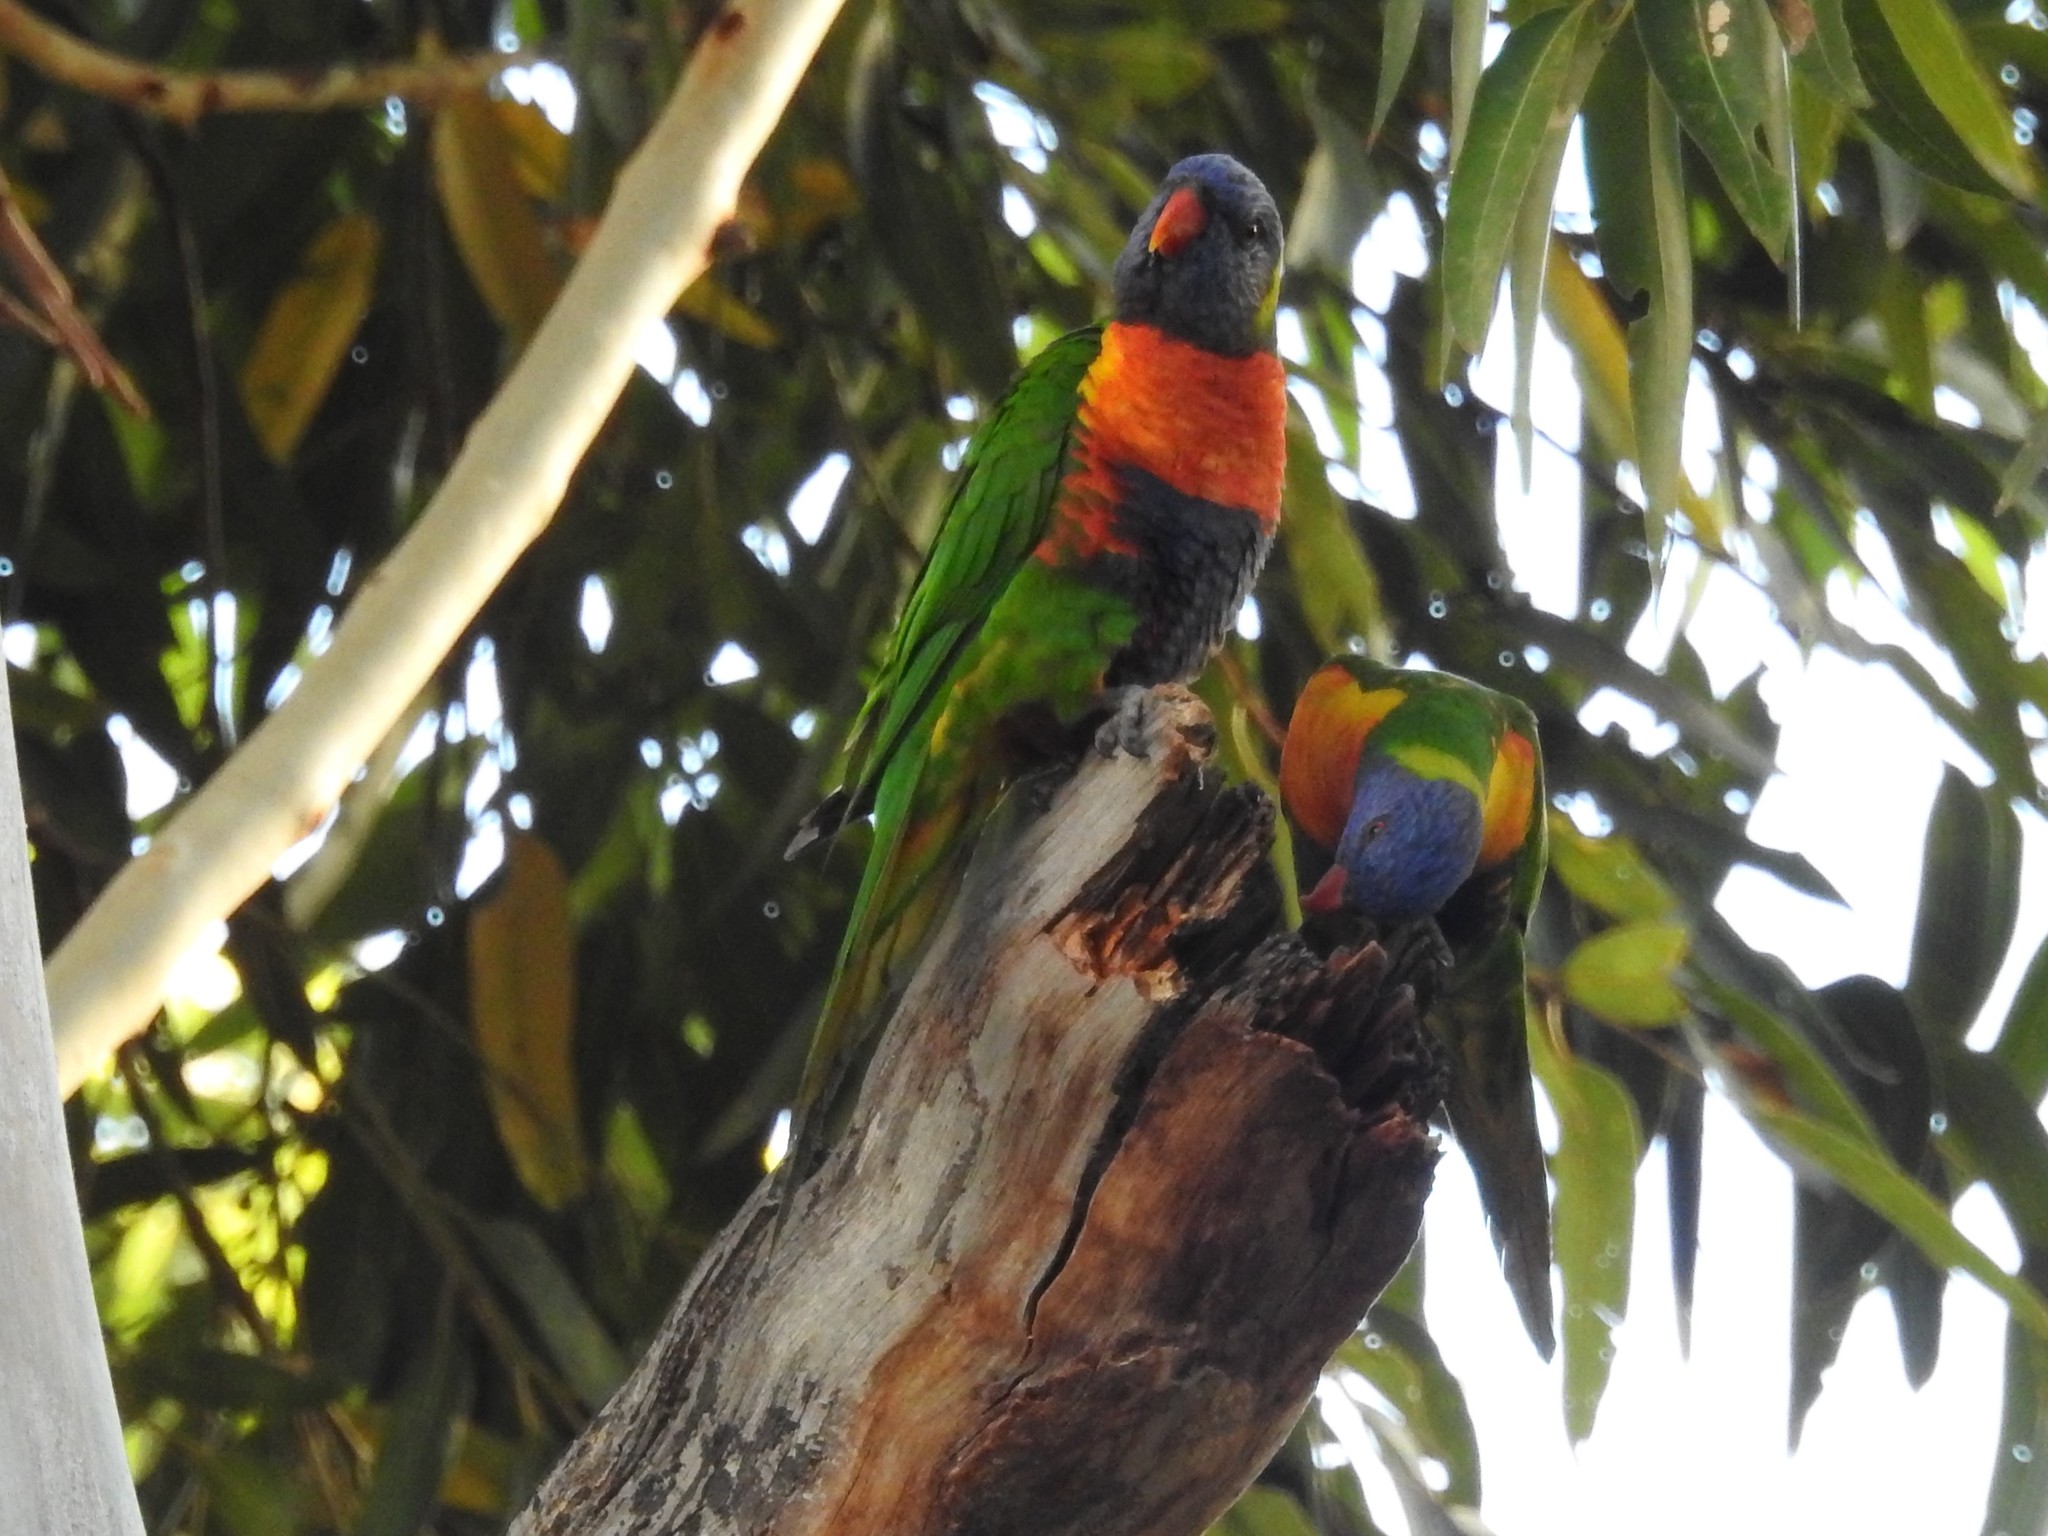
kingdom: Animalia
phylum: Chordata
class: Aves
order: Psittaciformes
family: Psittacidae
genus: Trichoglossus
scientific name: Trichoglossus haematodus
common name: Coconut lorikeet
